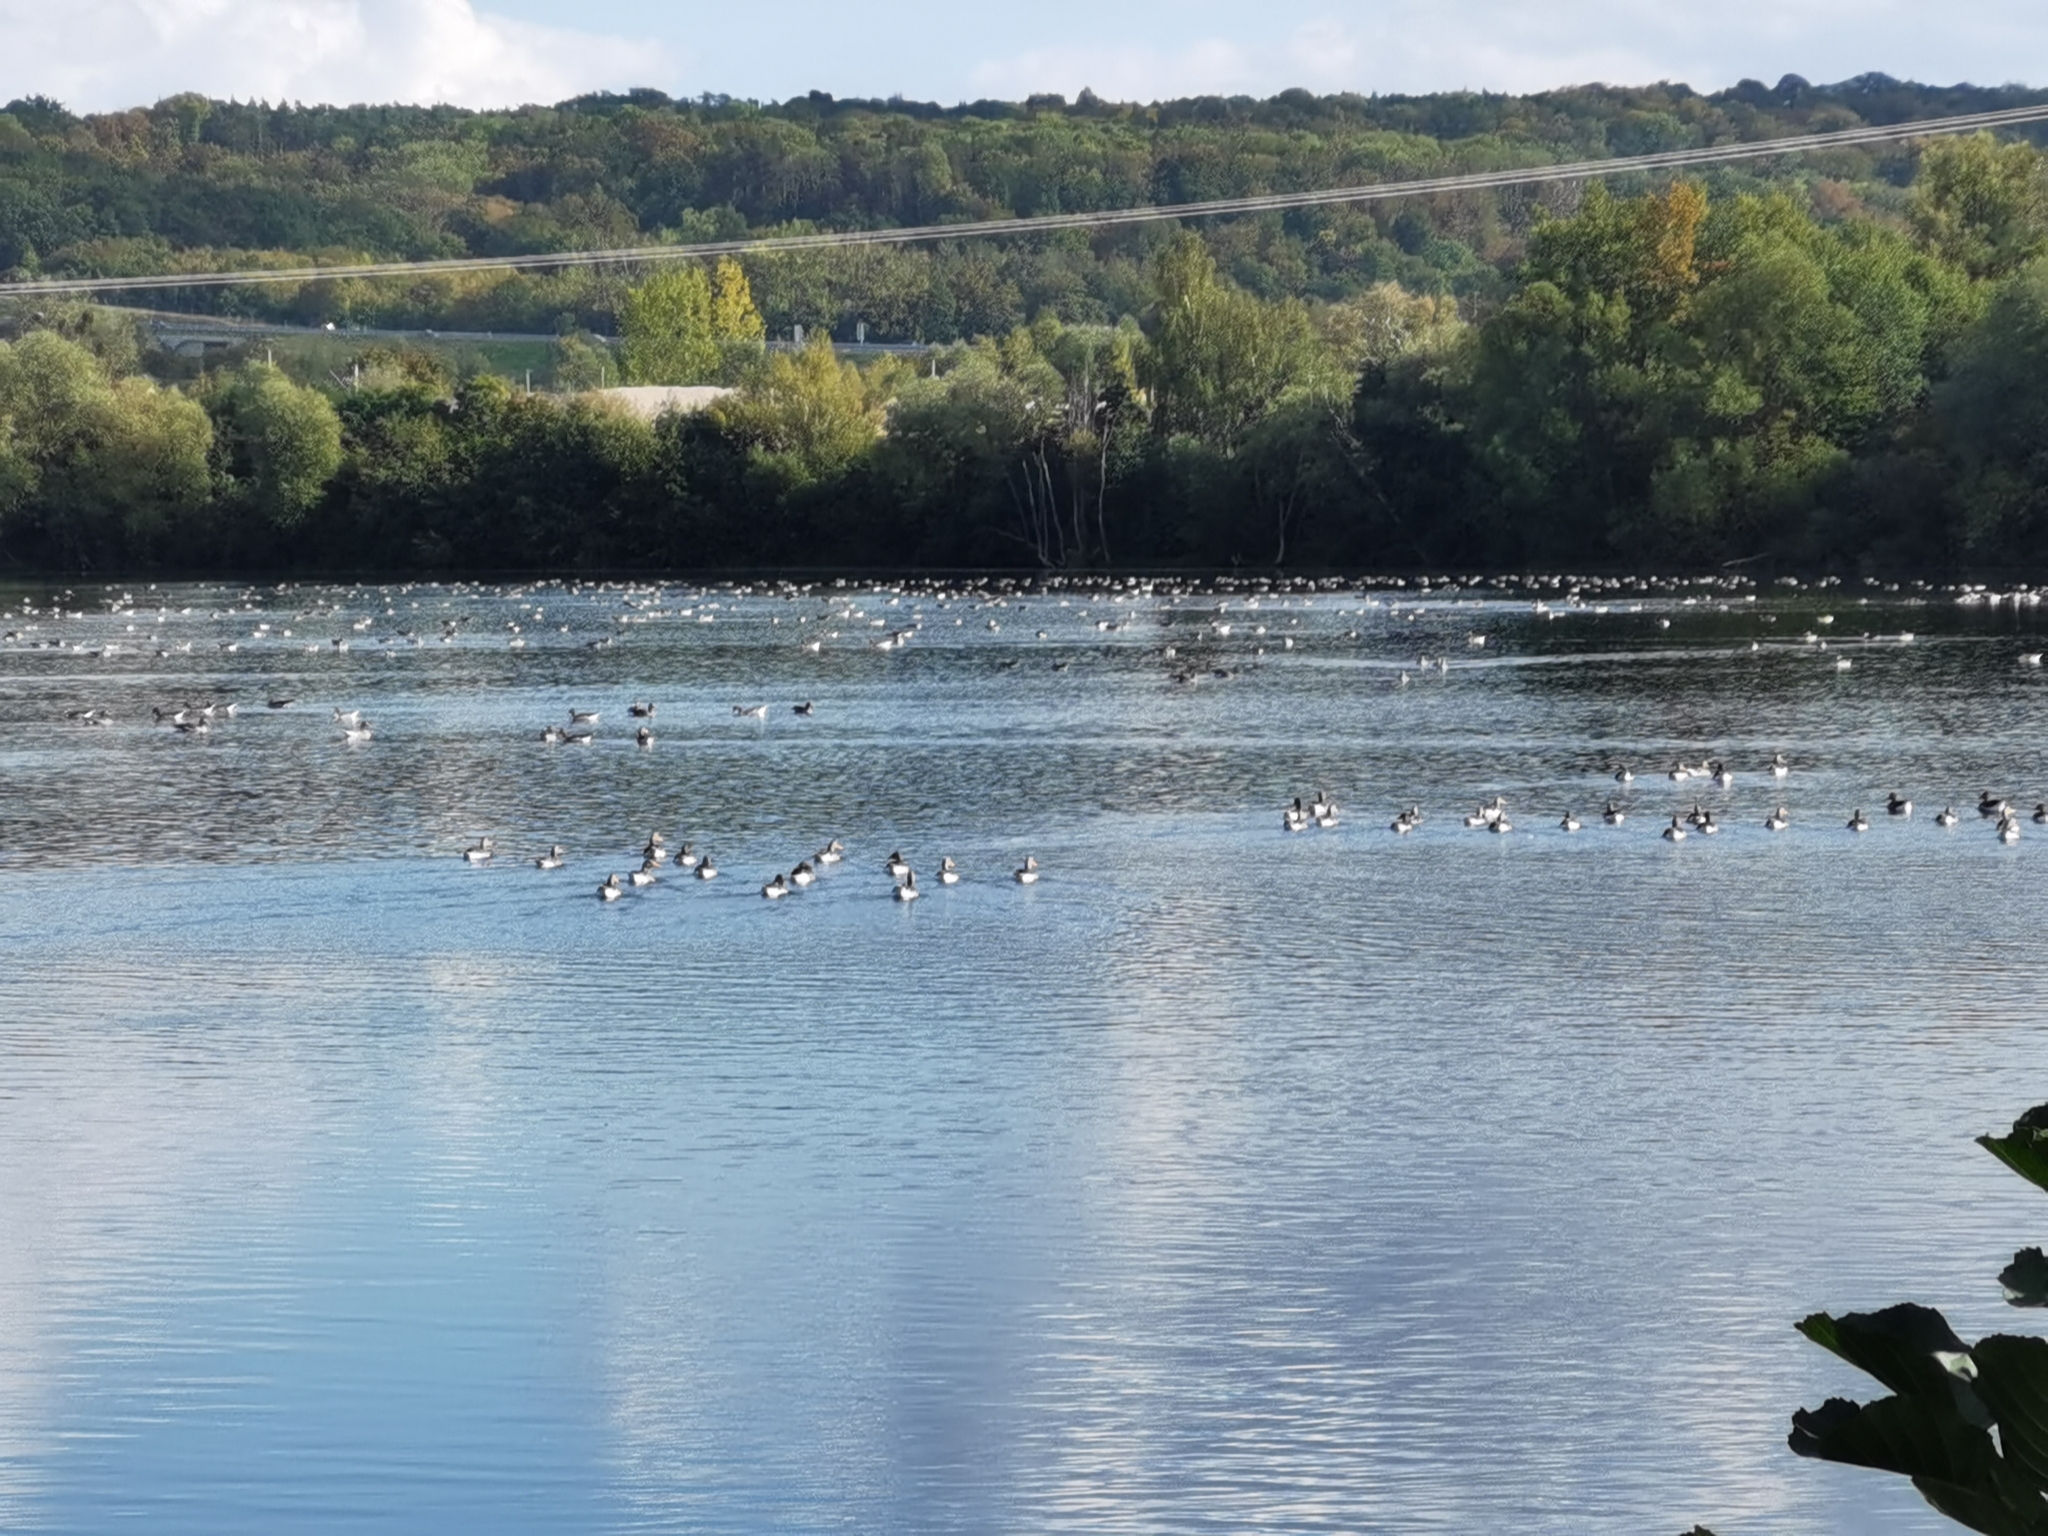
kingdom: Animalia
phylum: Chordata
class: Aves
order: Anseriformes
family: Anatidae
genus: Anser
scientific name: Anser anser
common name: Greylag goose
